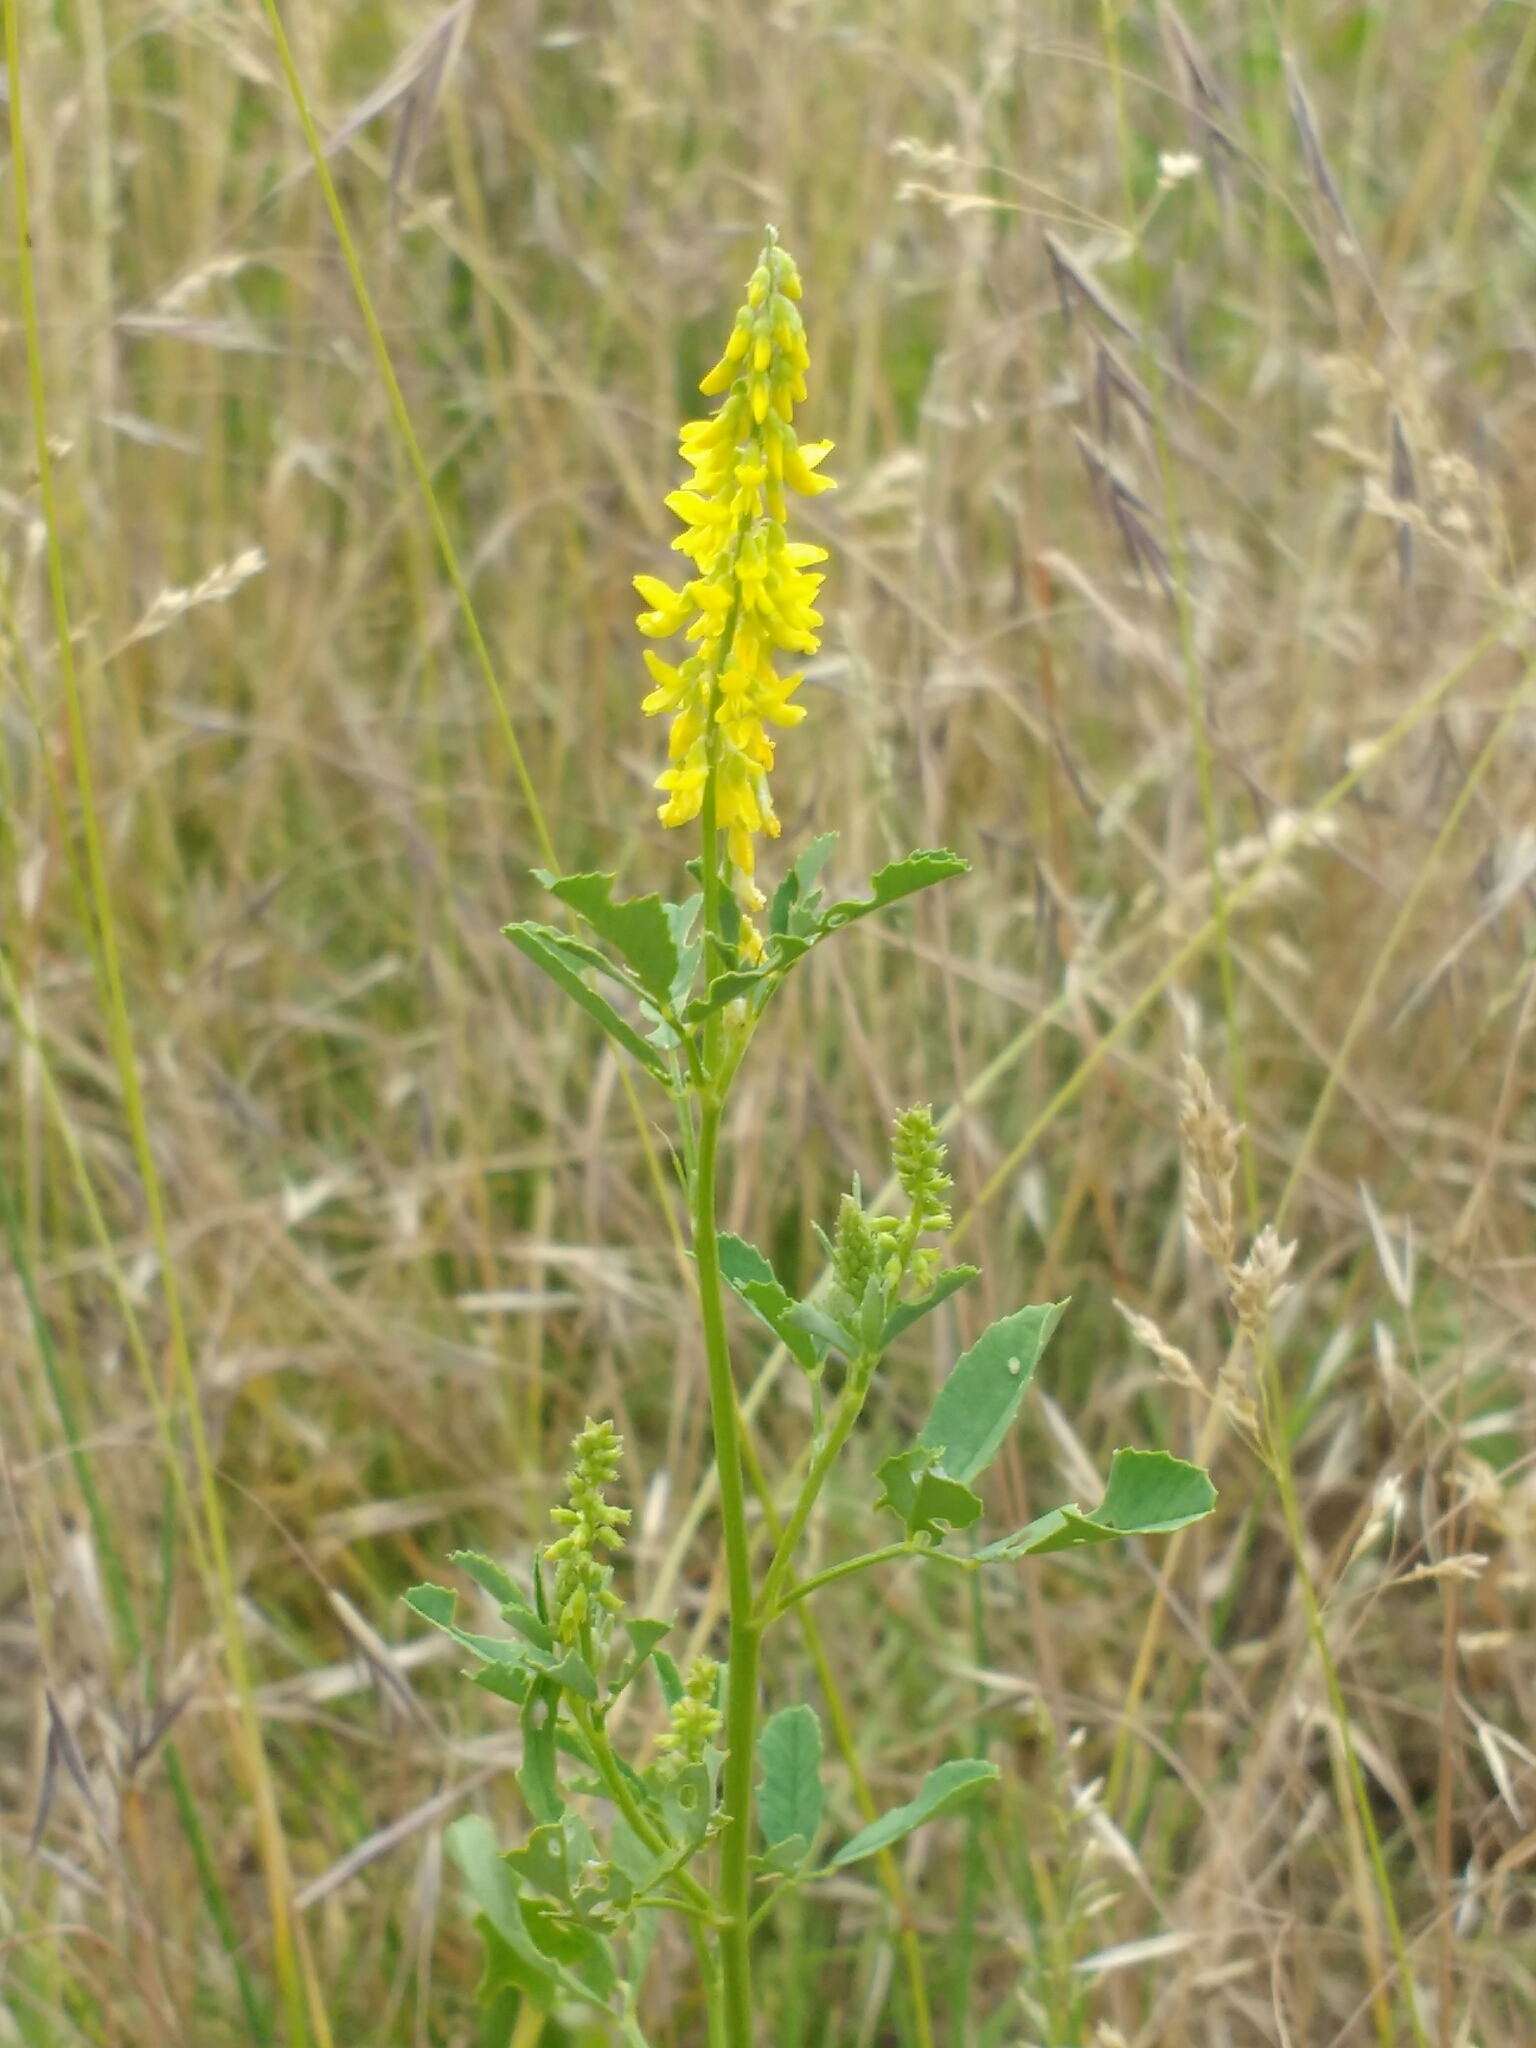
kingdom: Plantae
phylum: Tracheophyta
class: Magnoliopsida
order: Fabales
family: Fabaceae
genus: Melilotus
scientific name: Melilotus officinalis
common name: Sweetclover
